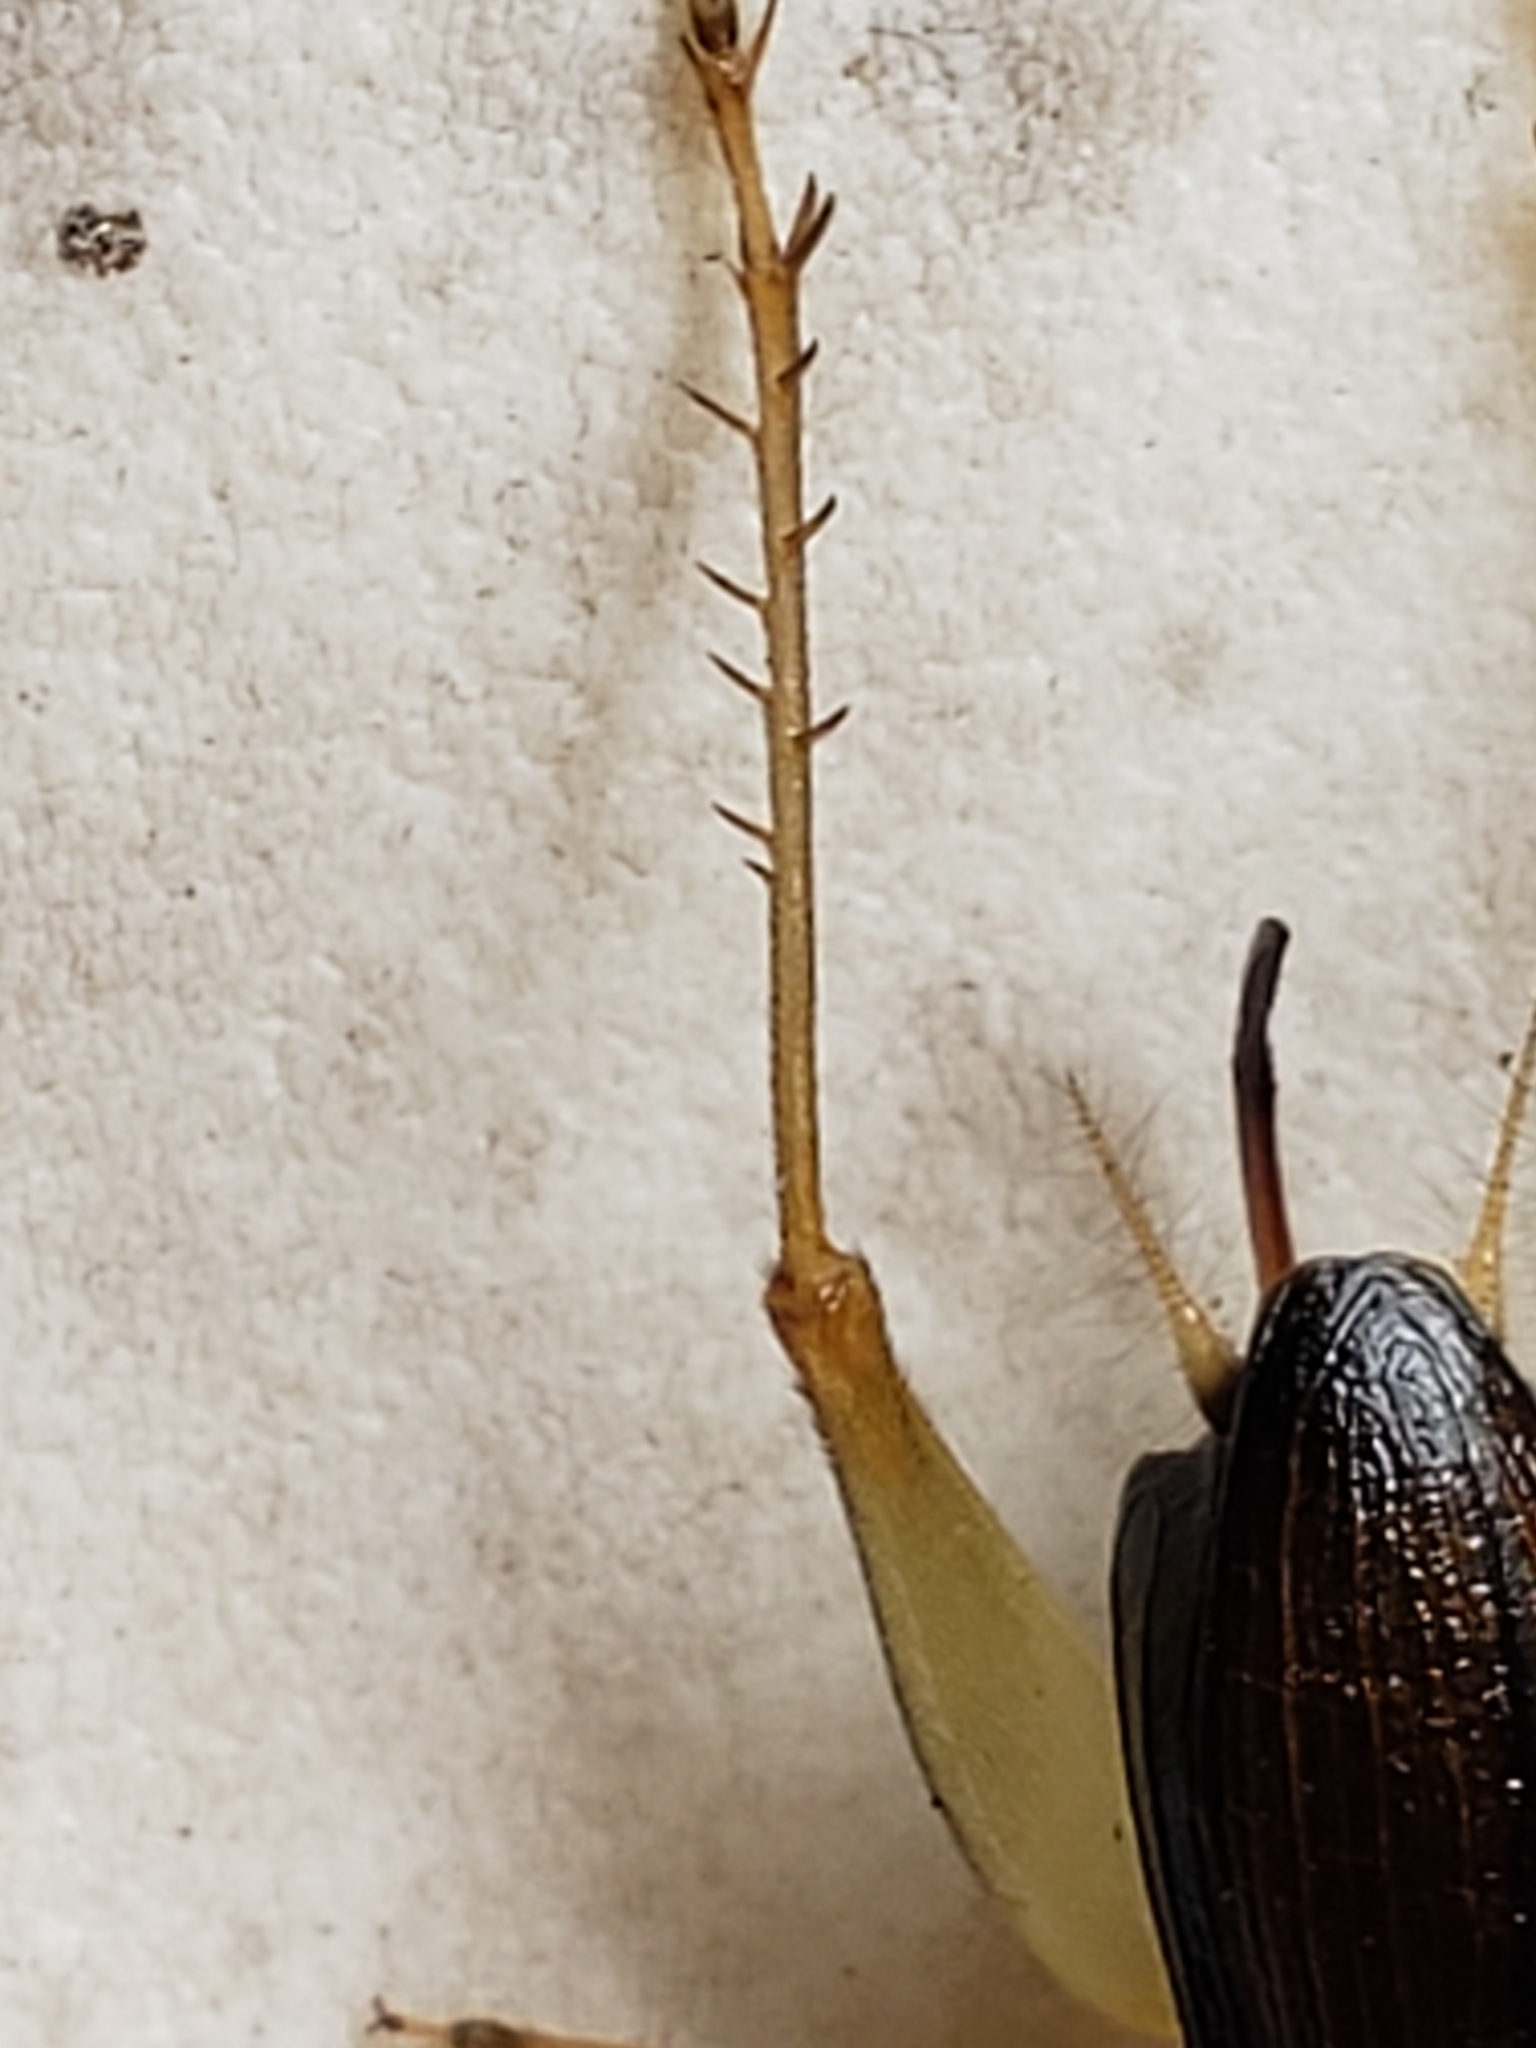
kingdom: Animalia
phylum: Arthropoda
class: Insecta
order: Orthoptera
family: Trigonidiidae
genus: Phyllopalpus
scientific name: Phyllopalpus pulchellus
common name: Handsome trig
